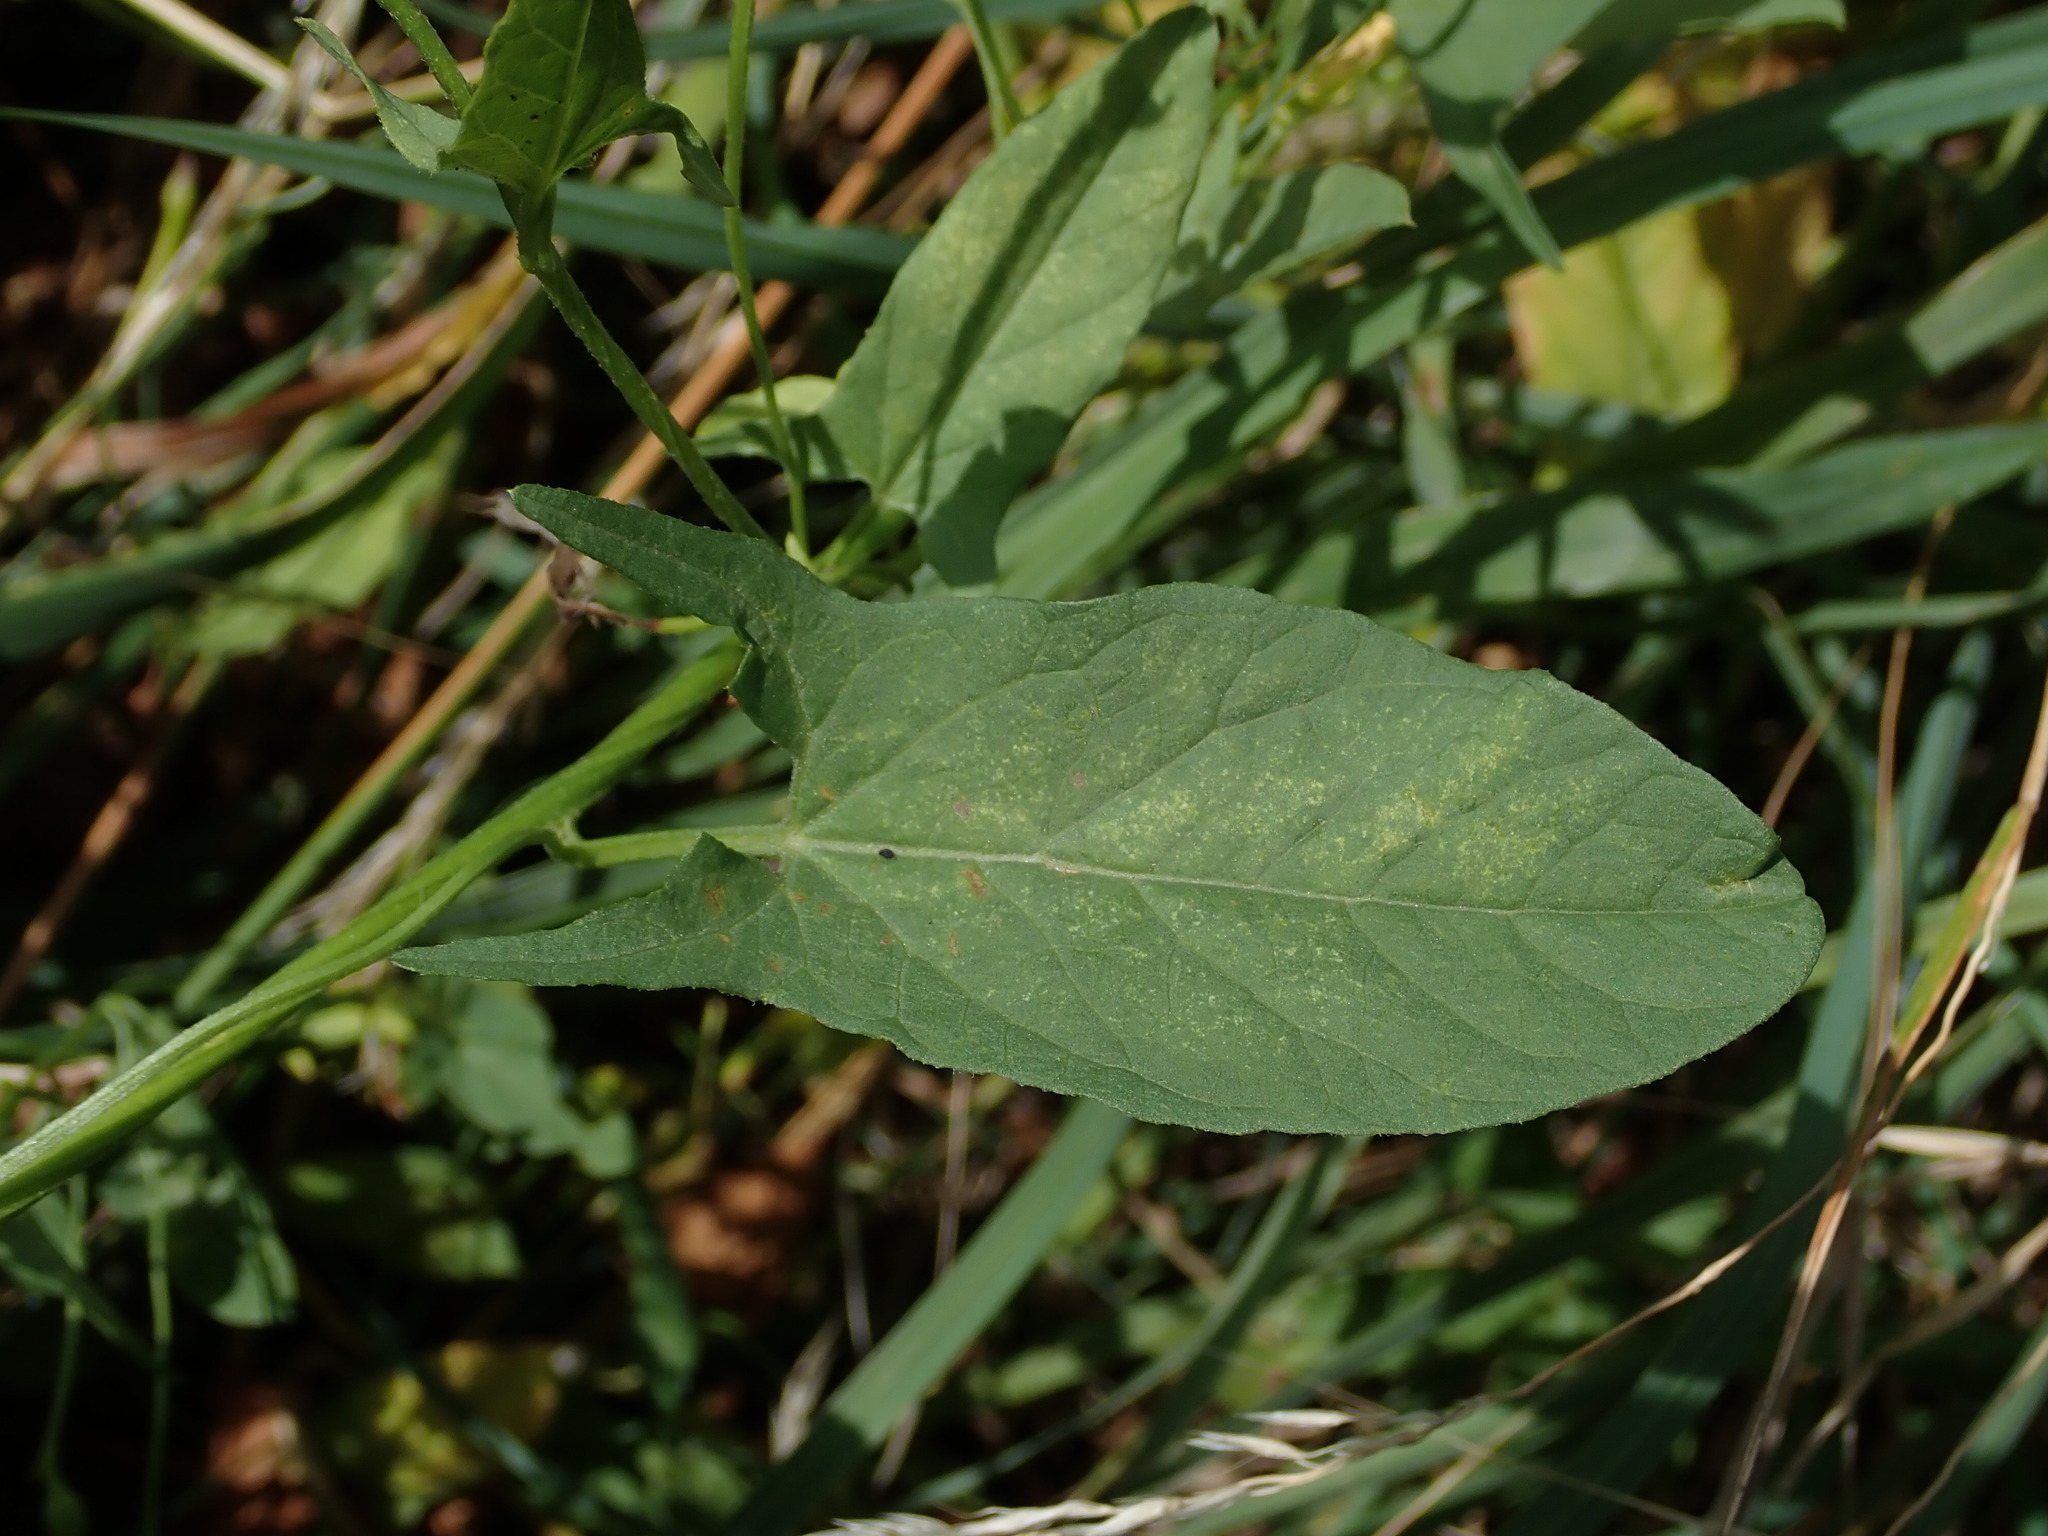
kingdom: Plantae
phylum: Tracheophyta
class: Magnoliopsida
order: Solanales
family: Convolvulaceae
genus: Convolvulus
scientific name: Convolvulus arvensis
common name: Field bindweed
